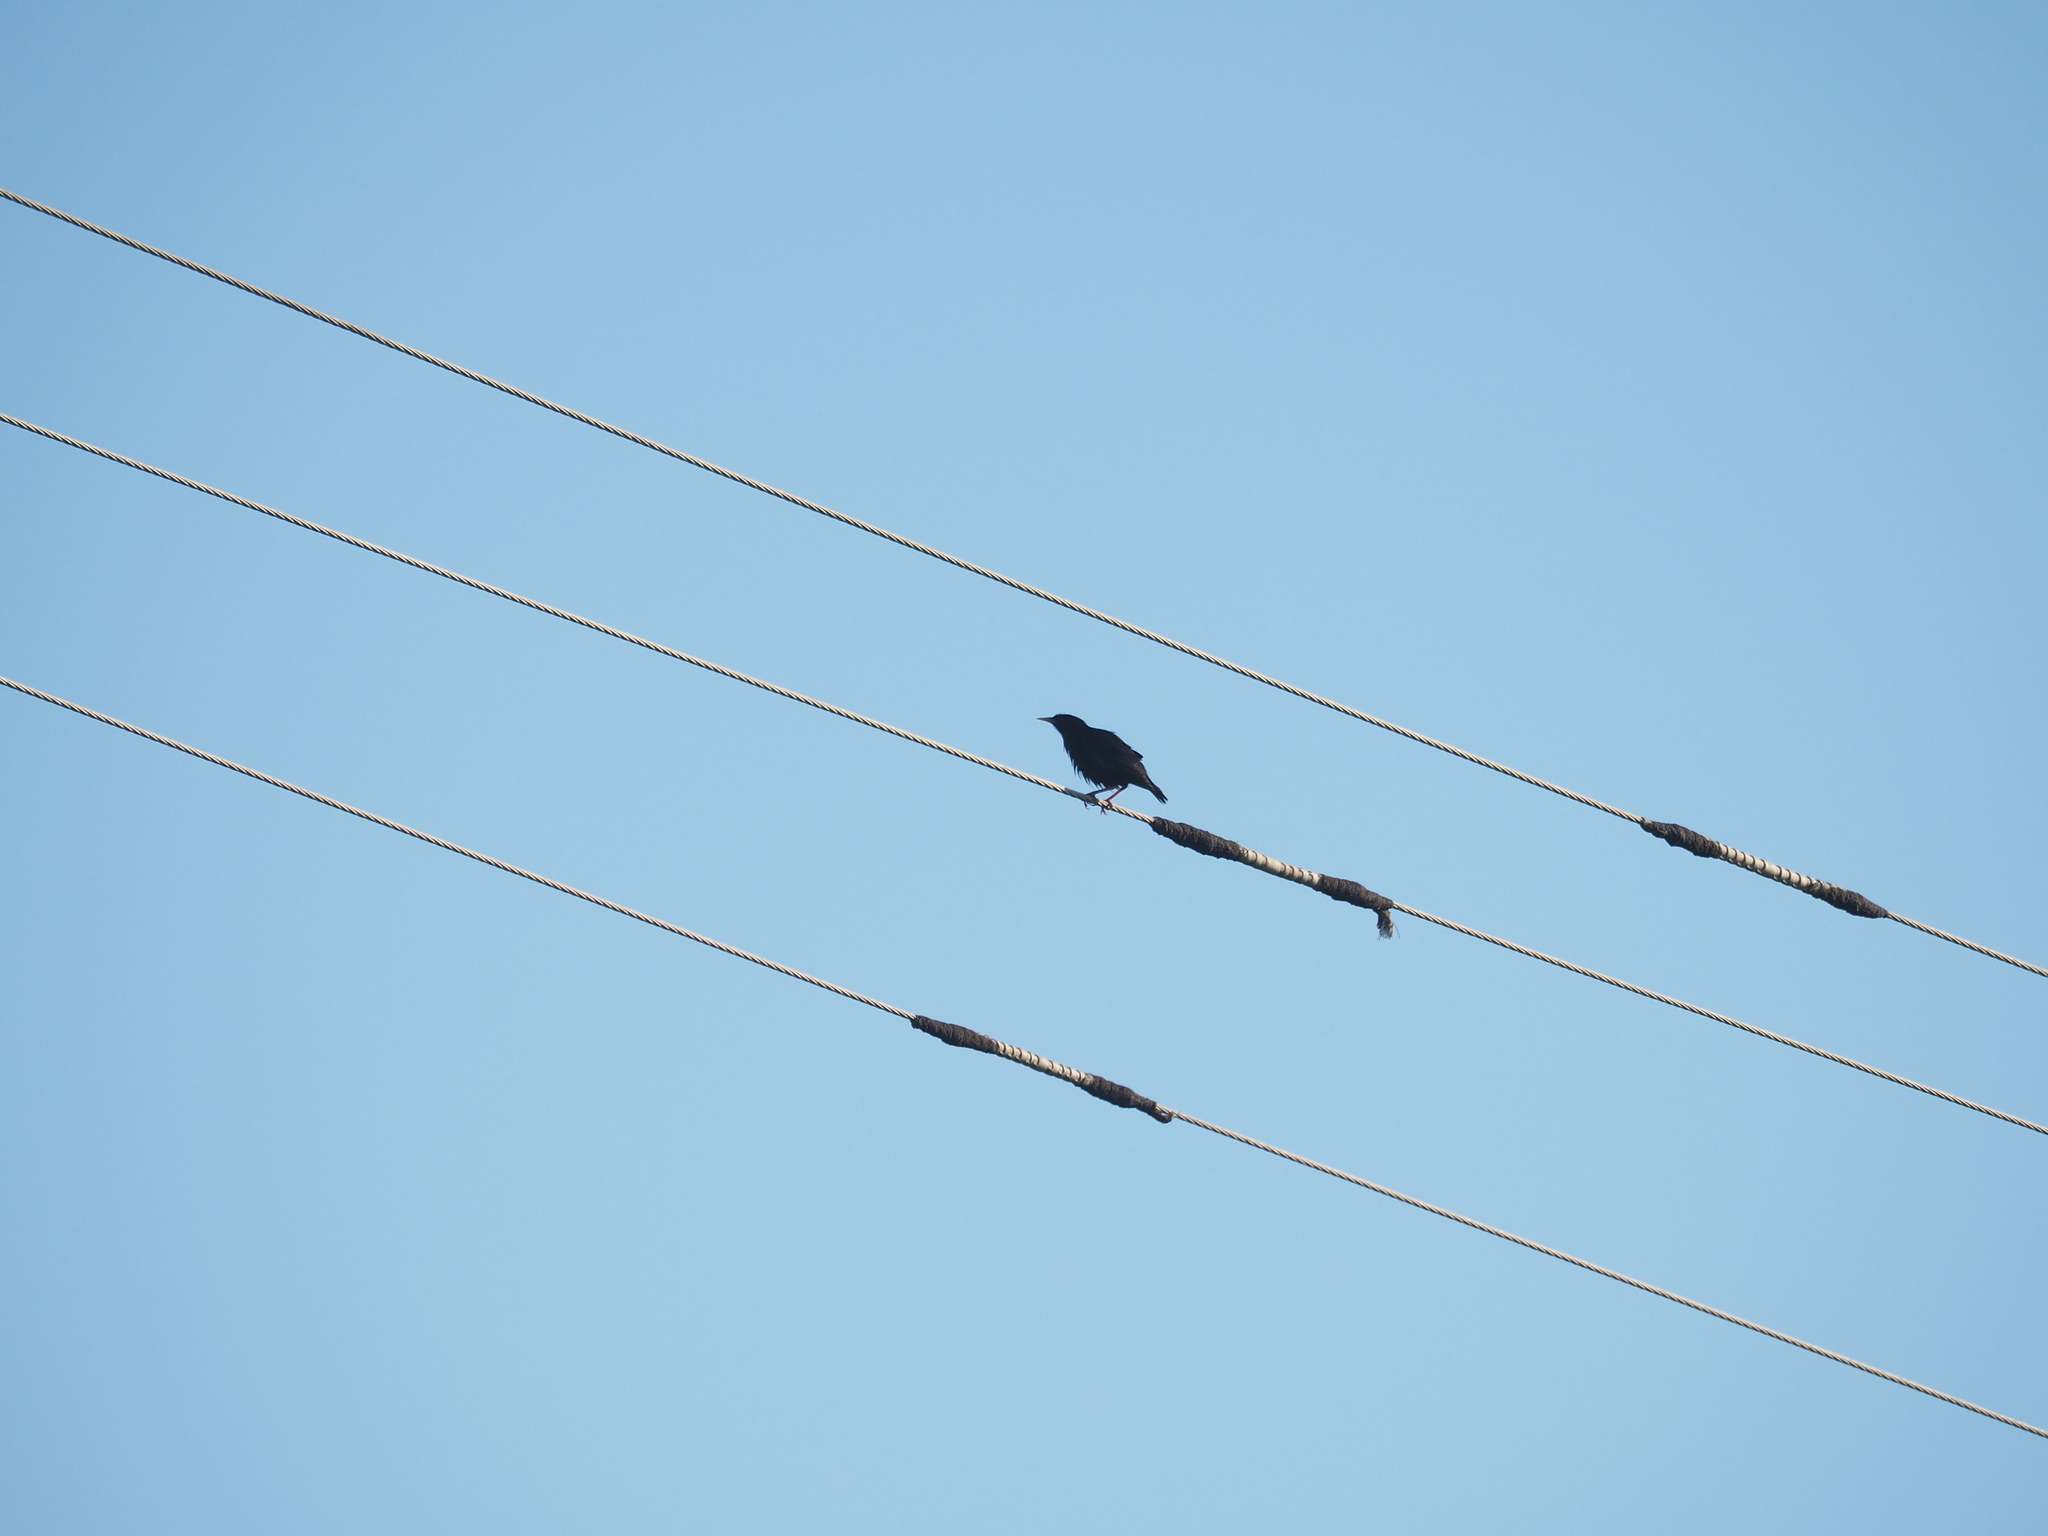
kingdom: Animalia
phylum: Chordata
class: Aves
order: Passeriformes
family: Sturnidae
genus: Sturnus
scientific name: Sturnus unicolor
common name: Spotless starling
